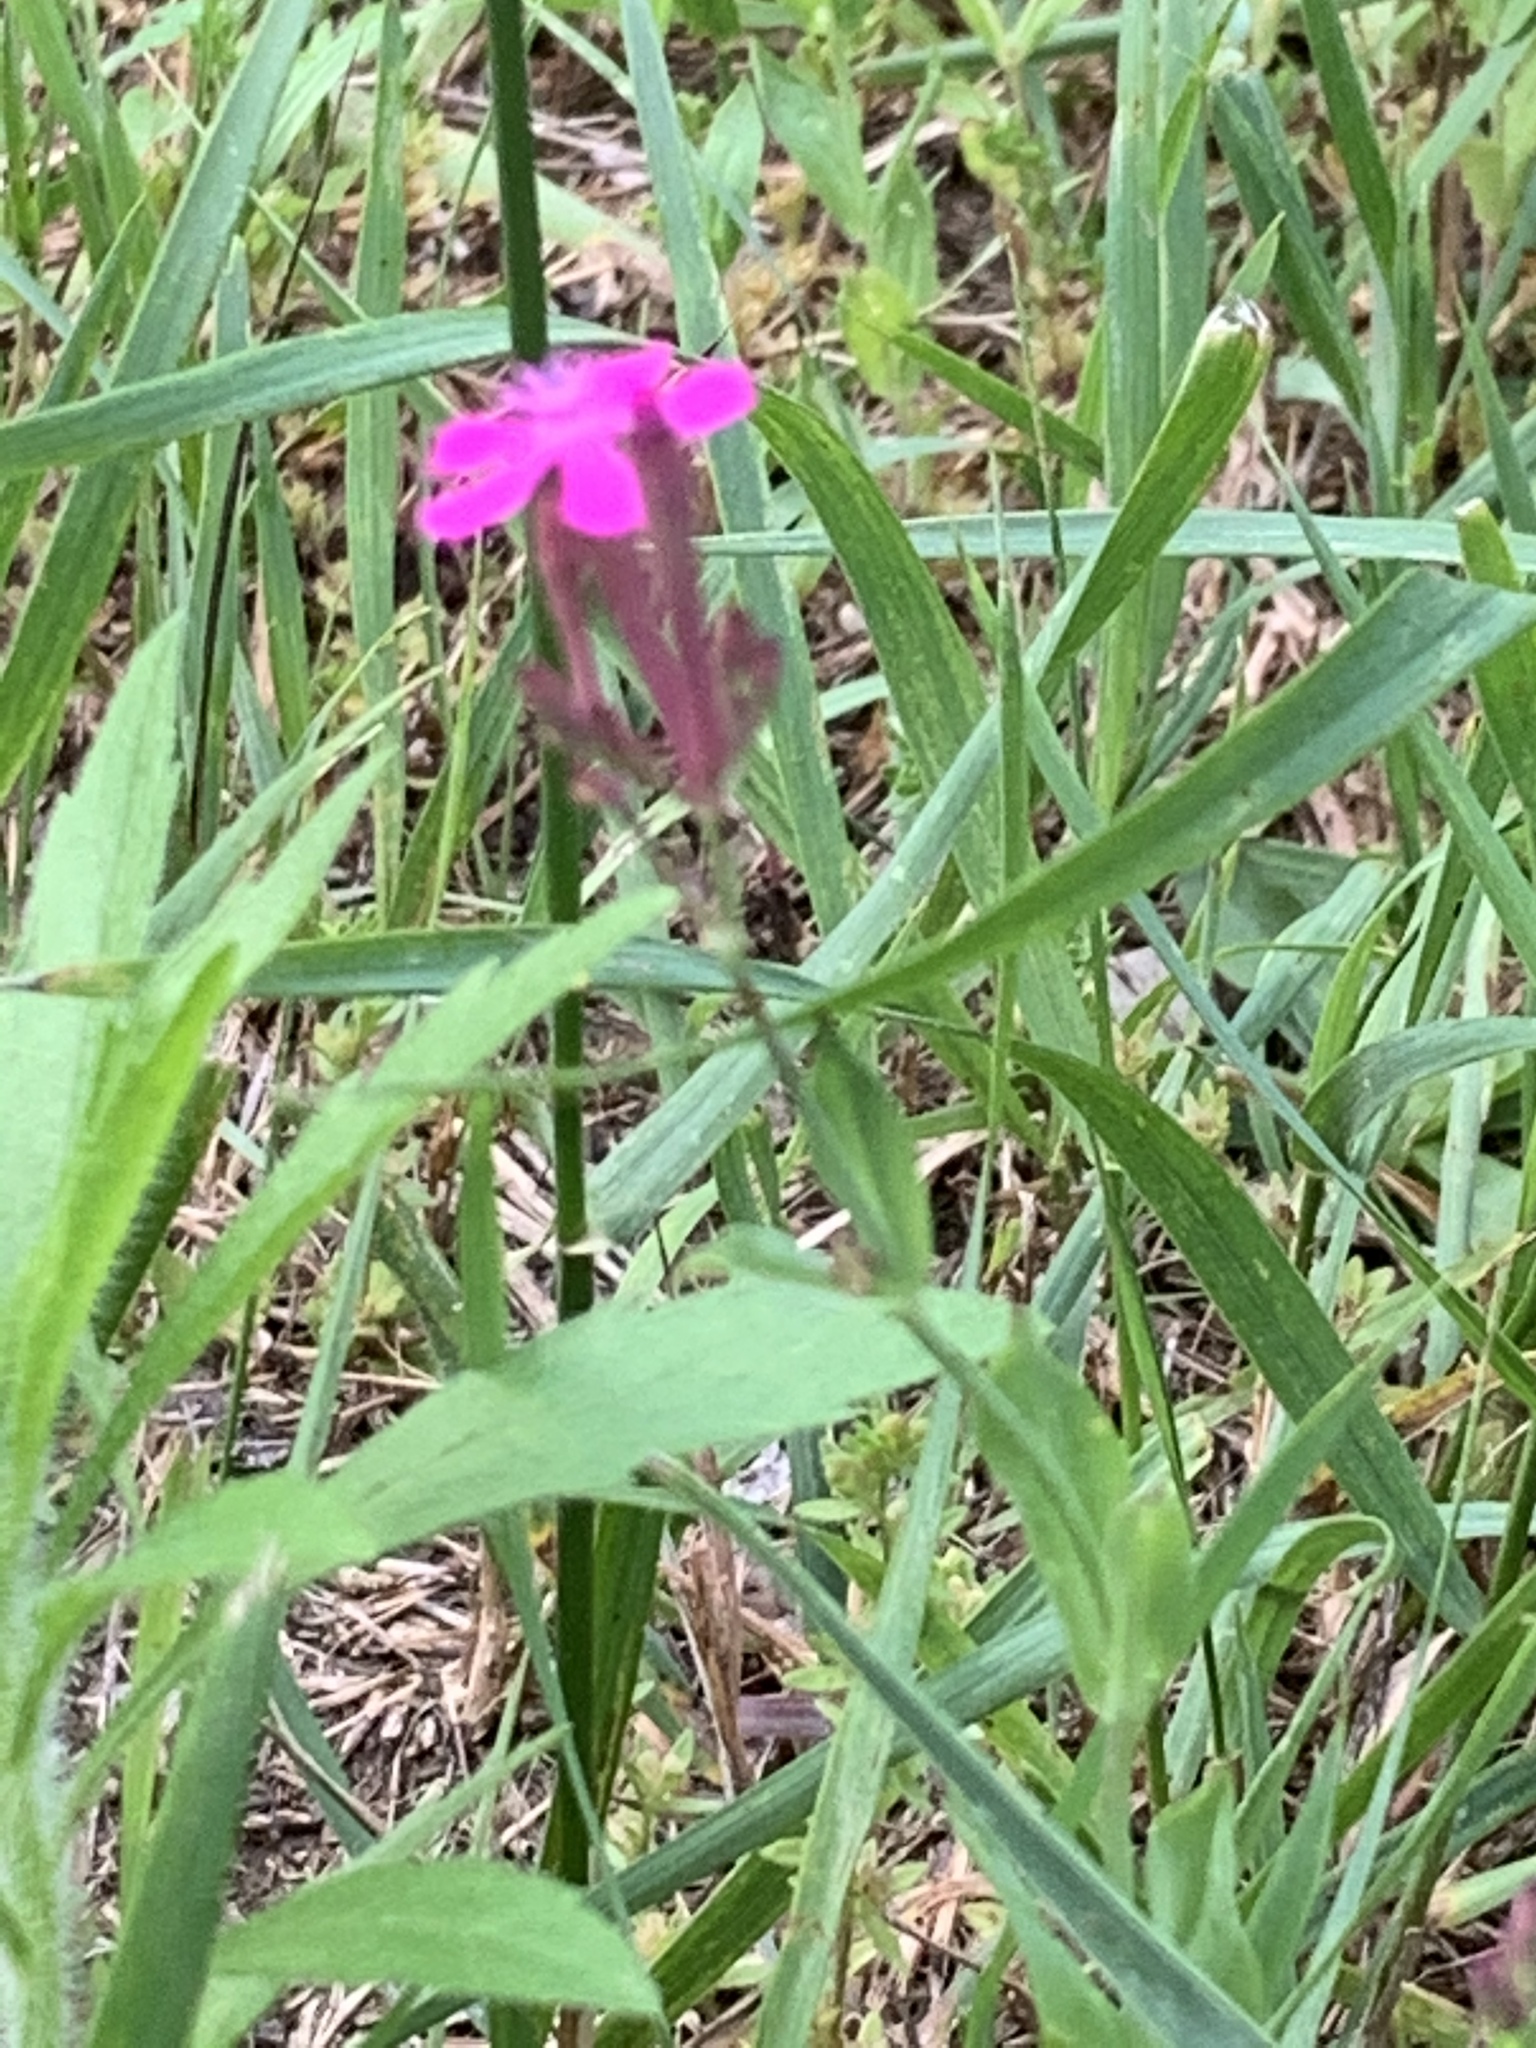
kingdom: Plantae
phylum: Tracheophyta
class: Magnoliopsida
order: Caryophyllales
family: Caryophyllaceae
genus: Atocion
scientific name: Atocion armeria
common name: Sweet william catchfly
